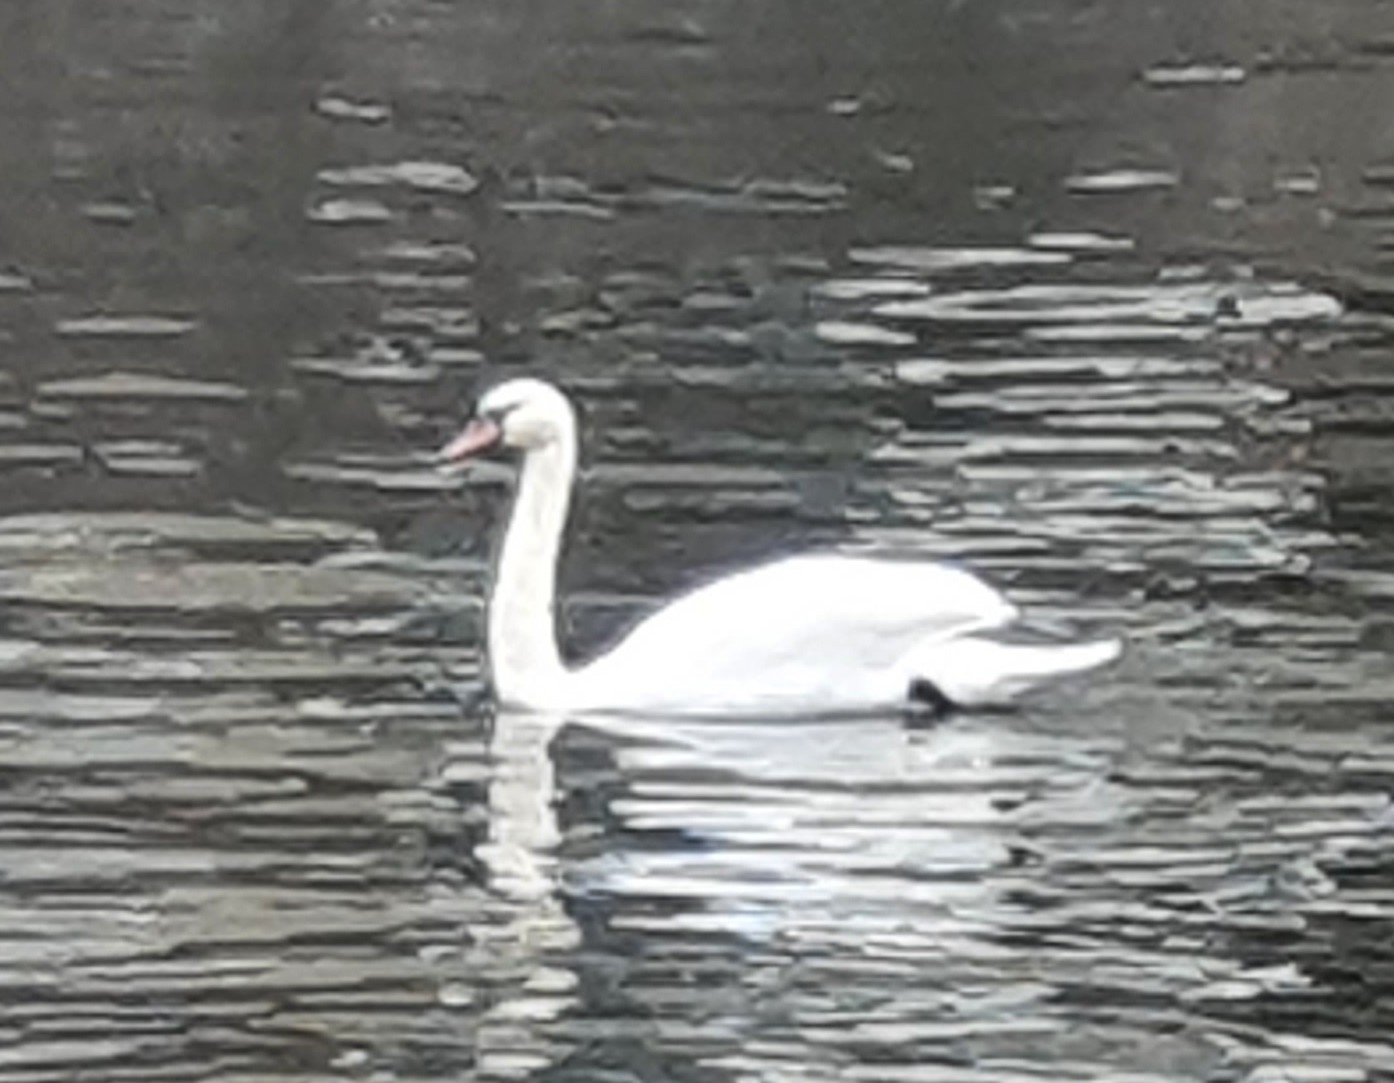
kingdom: Animalia
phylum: Chordata
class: Aves
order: Anseriformes
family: Anatidae
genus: Cygnus
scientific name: Cygnus olor
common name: Mute swan
